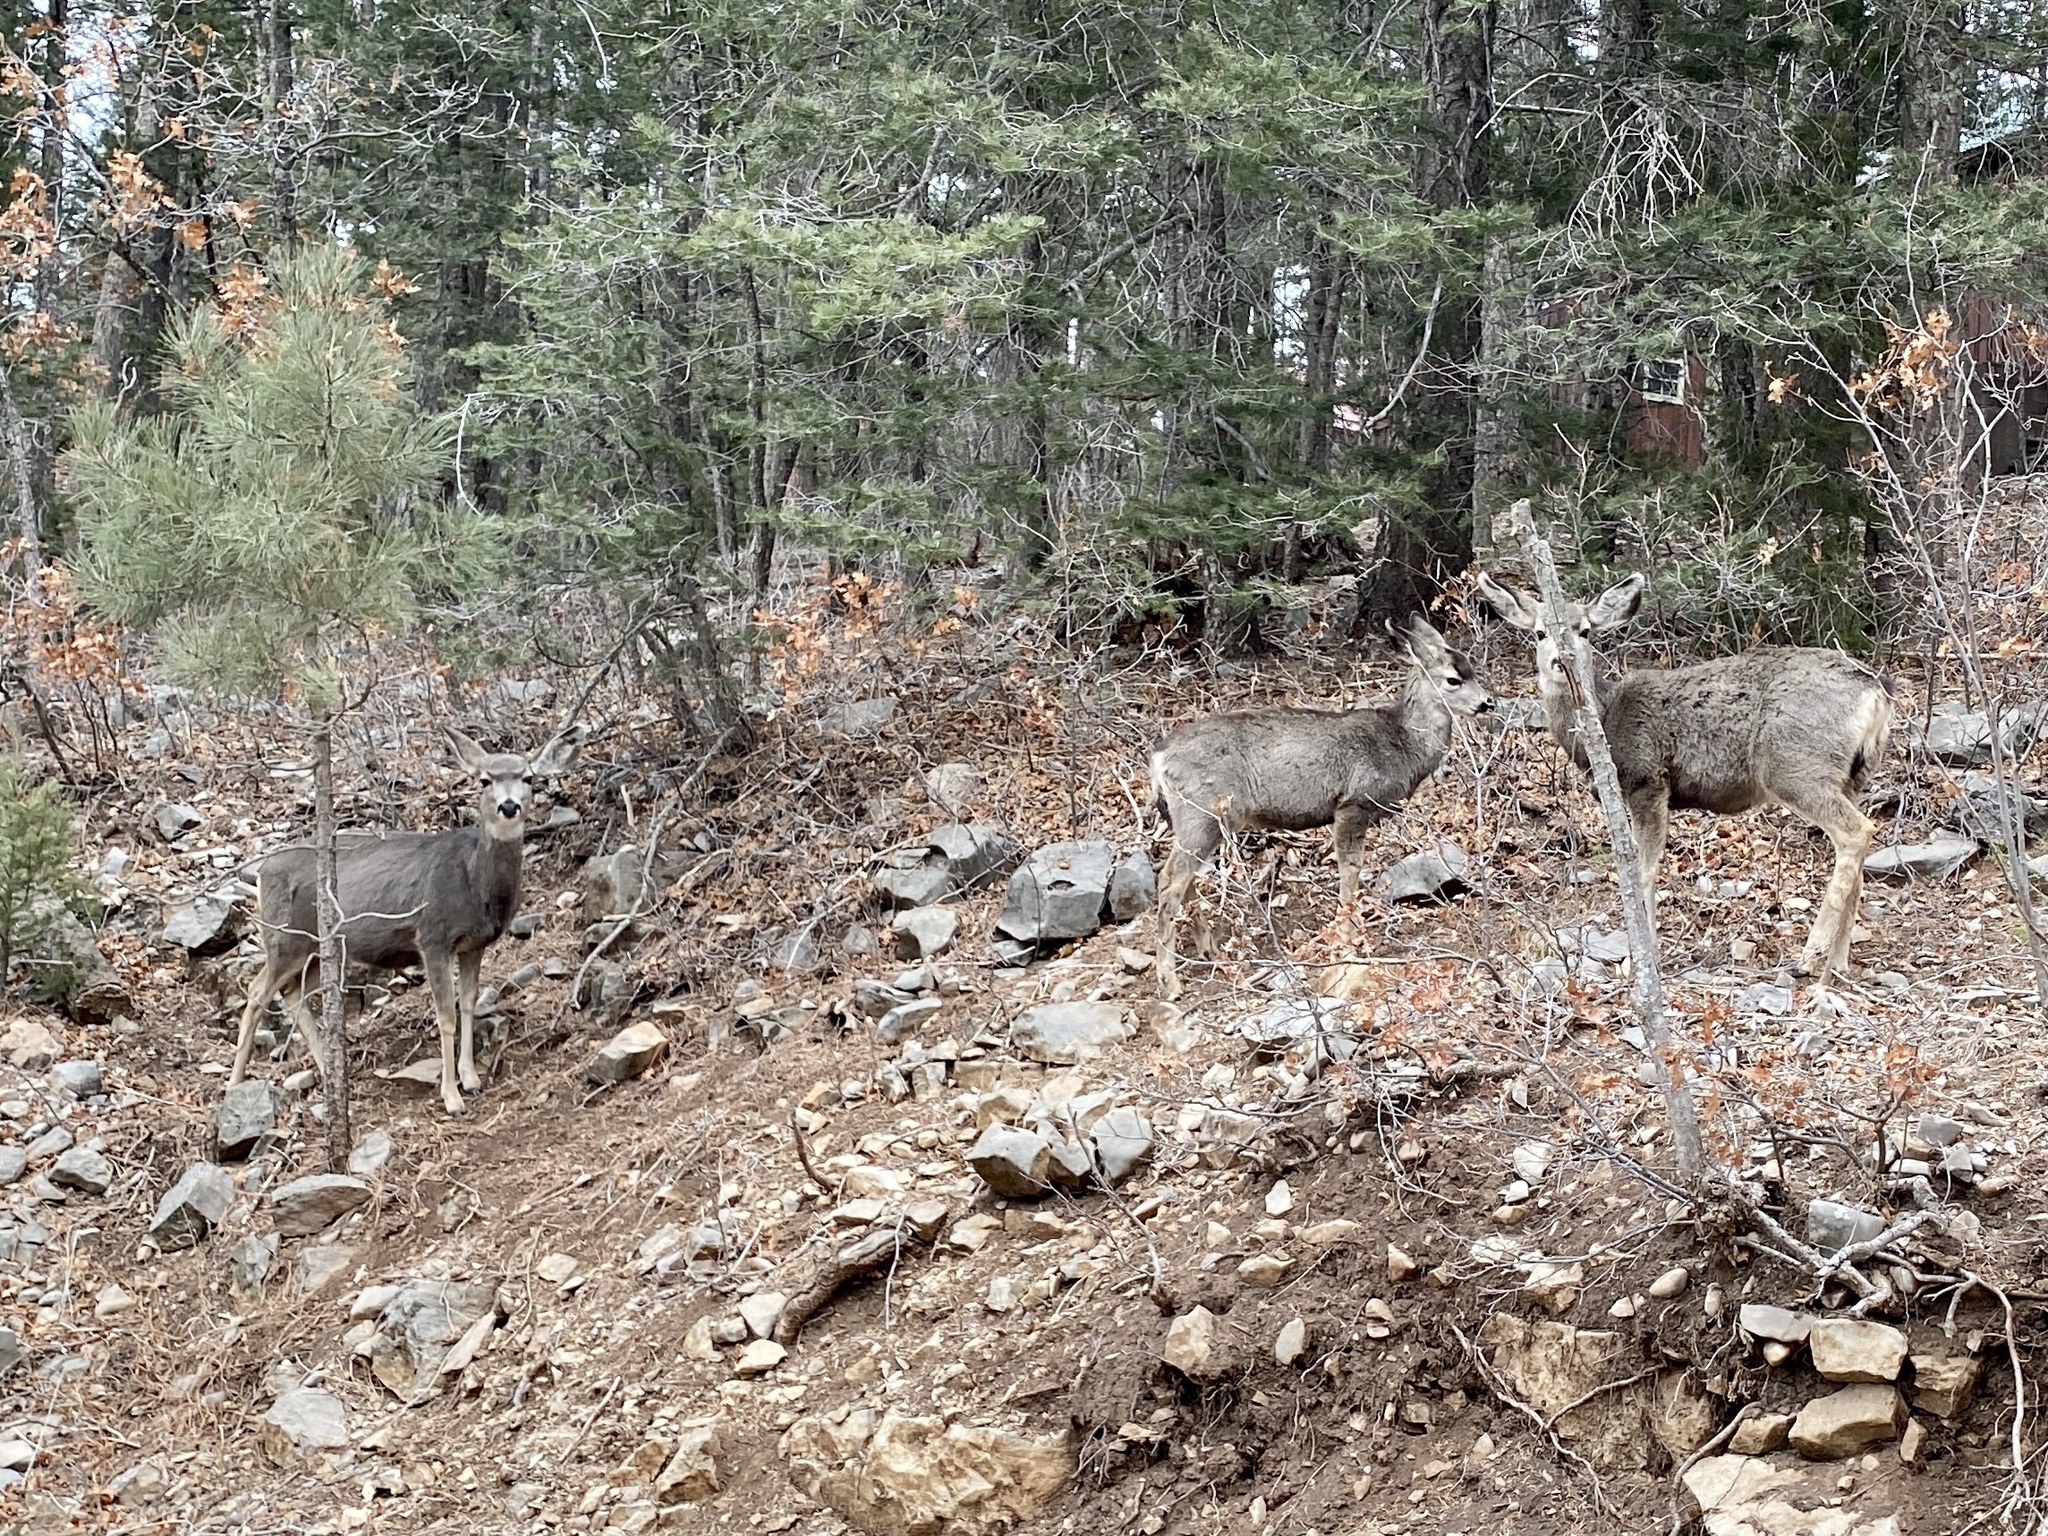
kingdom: Animalia
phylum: Chordata
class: Mammalia
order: Artiodactyla
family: Cervidae
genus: Odocoileus
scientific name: Odocoileus hemionus
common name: Mule deer
